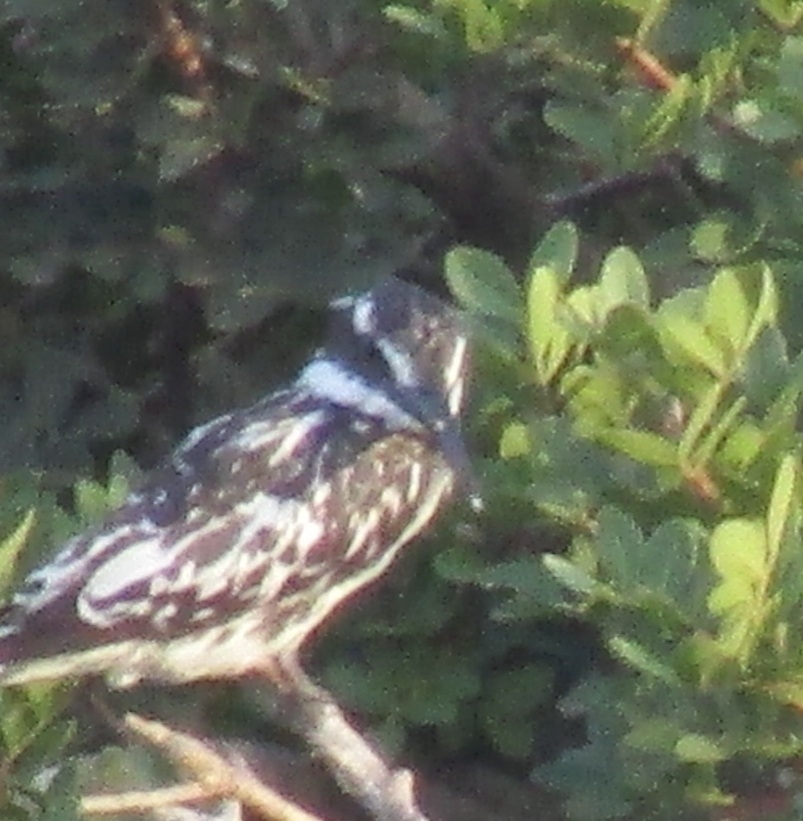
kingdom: Animalia
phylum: Chordata
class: Aves
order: Coraciiformes
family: Alcedinidae
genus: Ceryle
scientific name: Ceryle rudis
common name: Pied kingfisher
